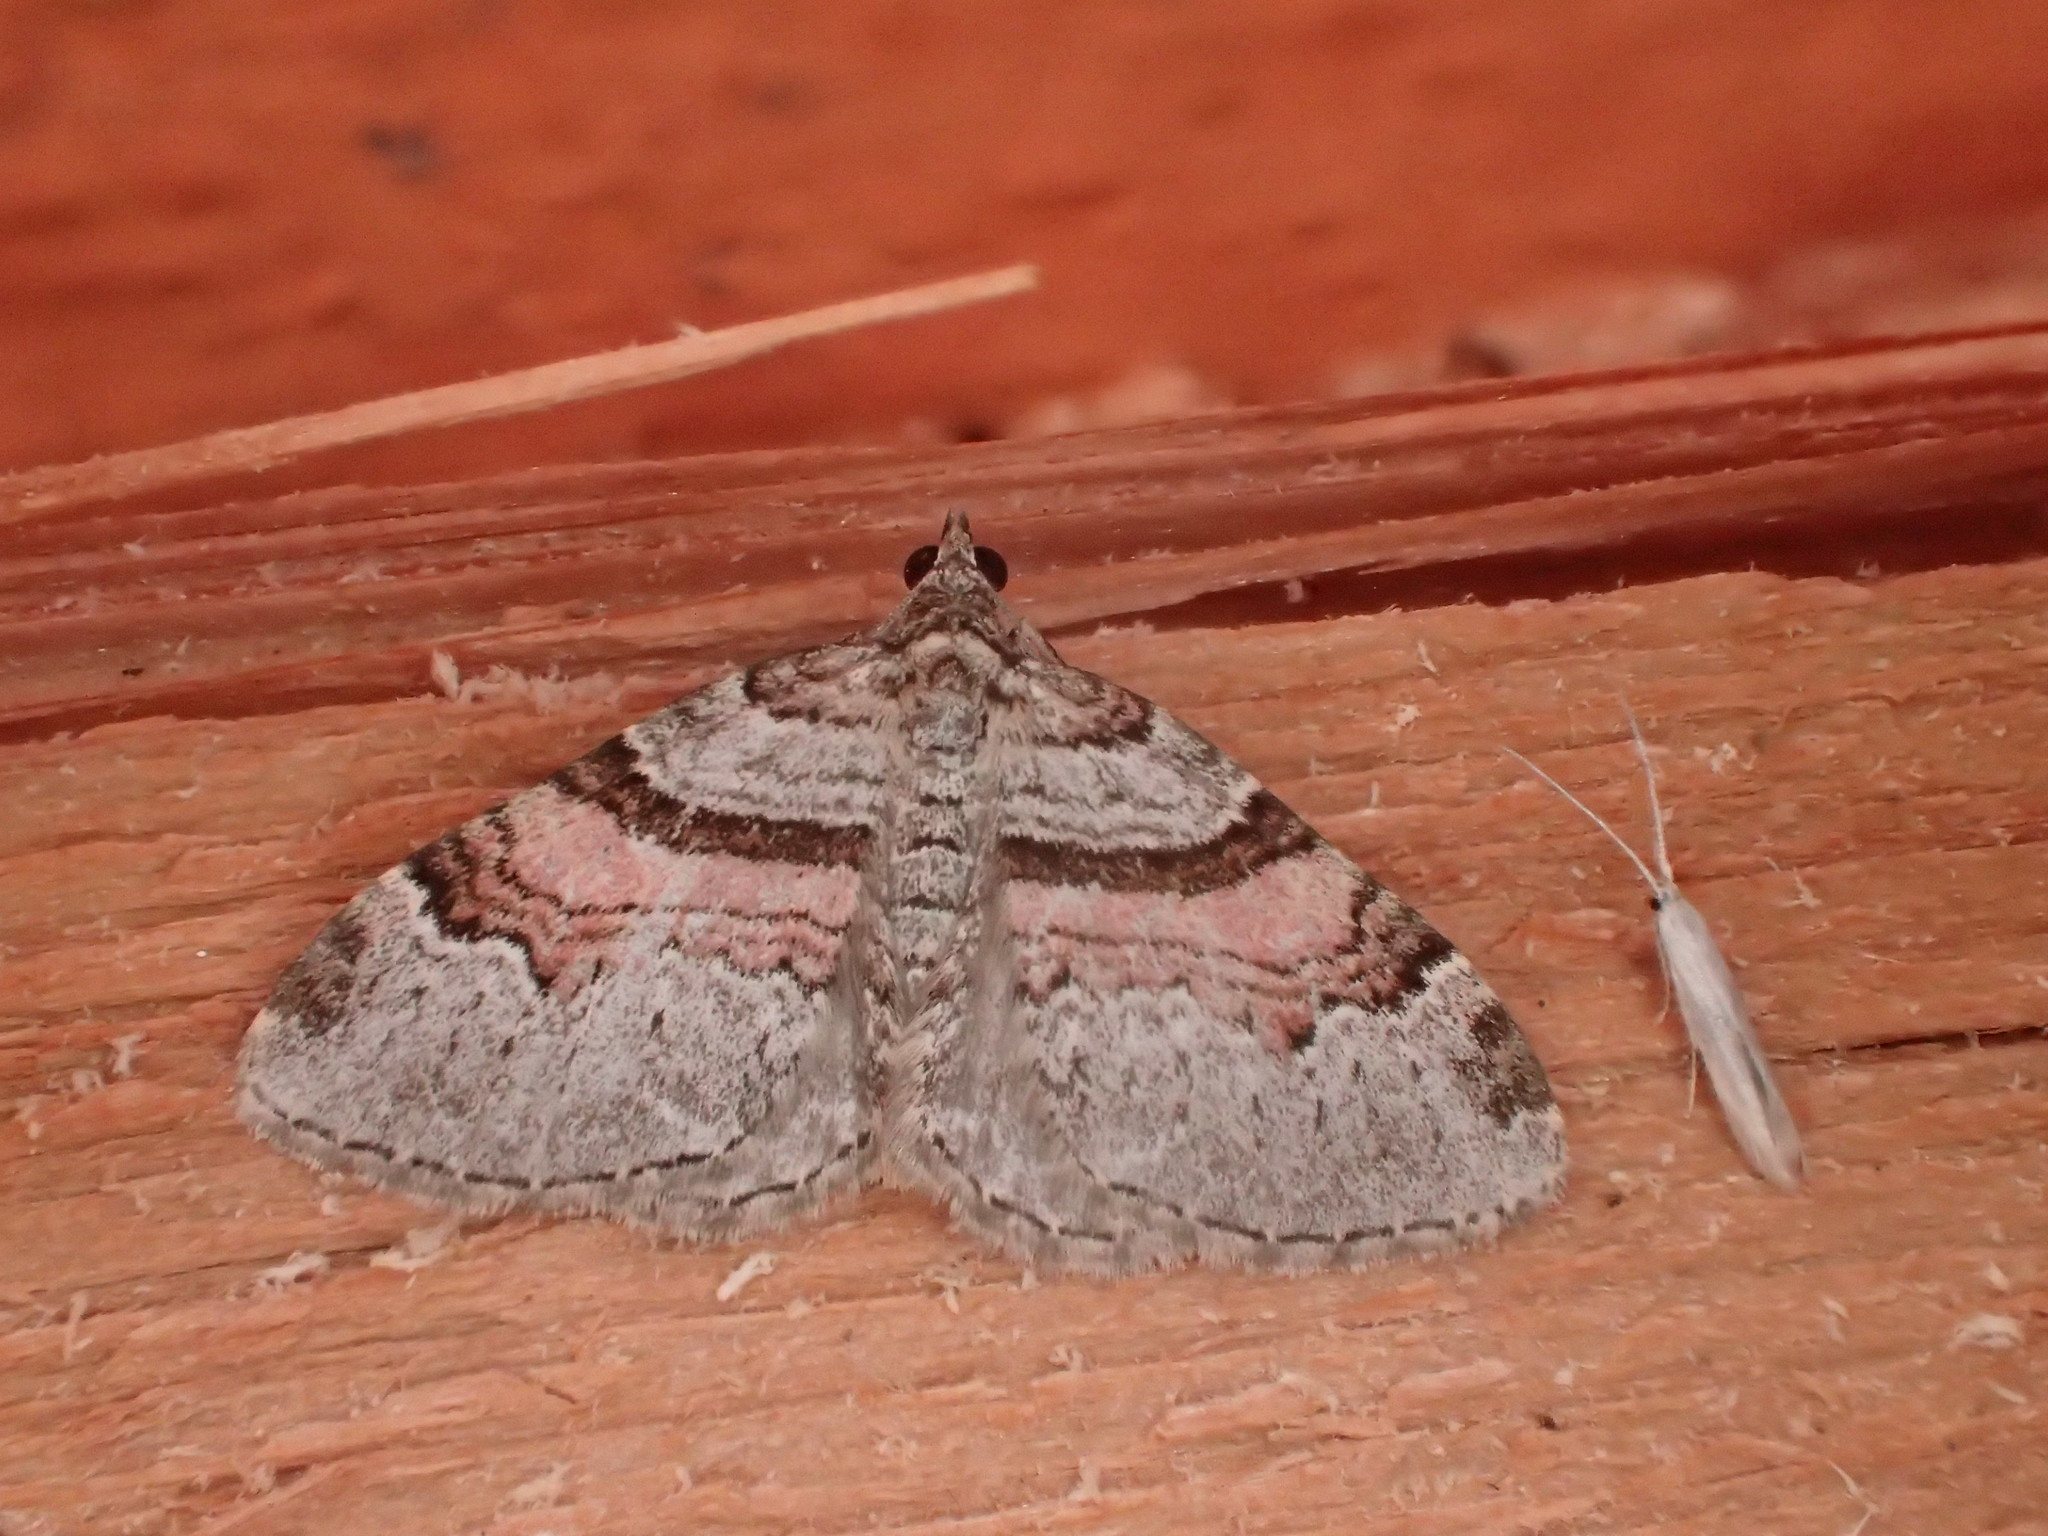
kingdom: Animalia
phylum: Arthropoda
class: Insecta
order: Lepidoptera
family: Geometridae
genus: Xanthorhoe
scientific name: Xanthorhoe labradorensis
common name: Labrador carpet
